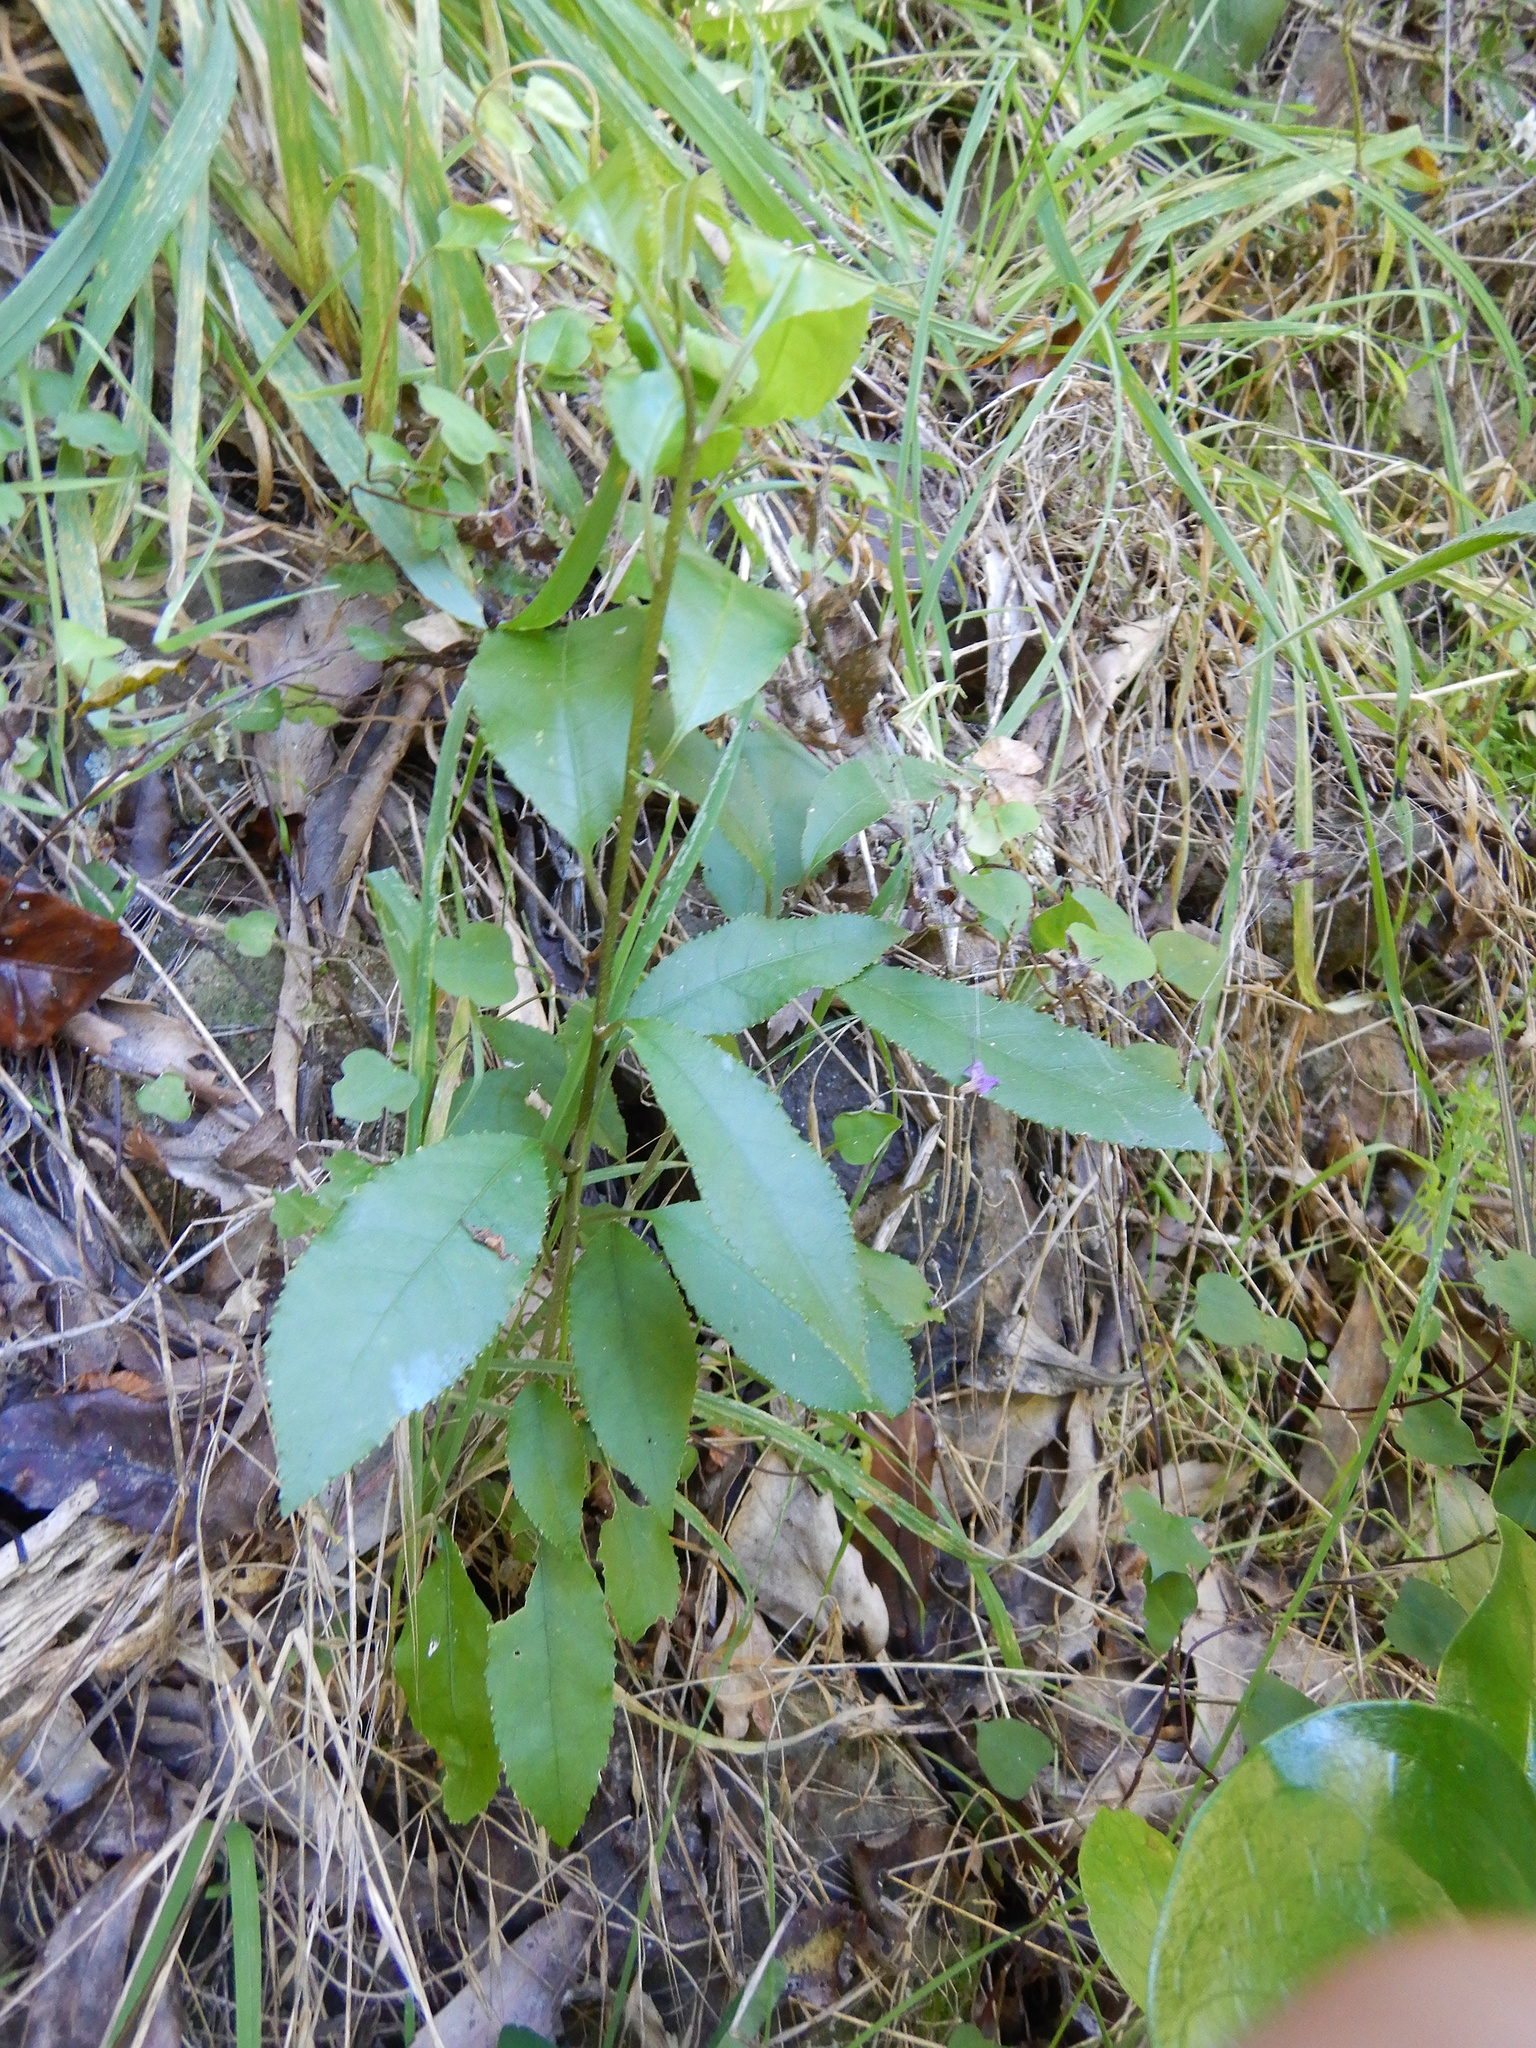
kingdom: Plantae
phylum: Tracheophyta
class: Magnoliopsida
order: Malpighiales
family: Violaceae
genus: Melicytus
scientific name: Melicytus ramiflorus
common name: Mahoe
